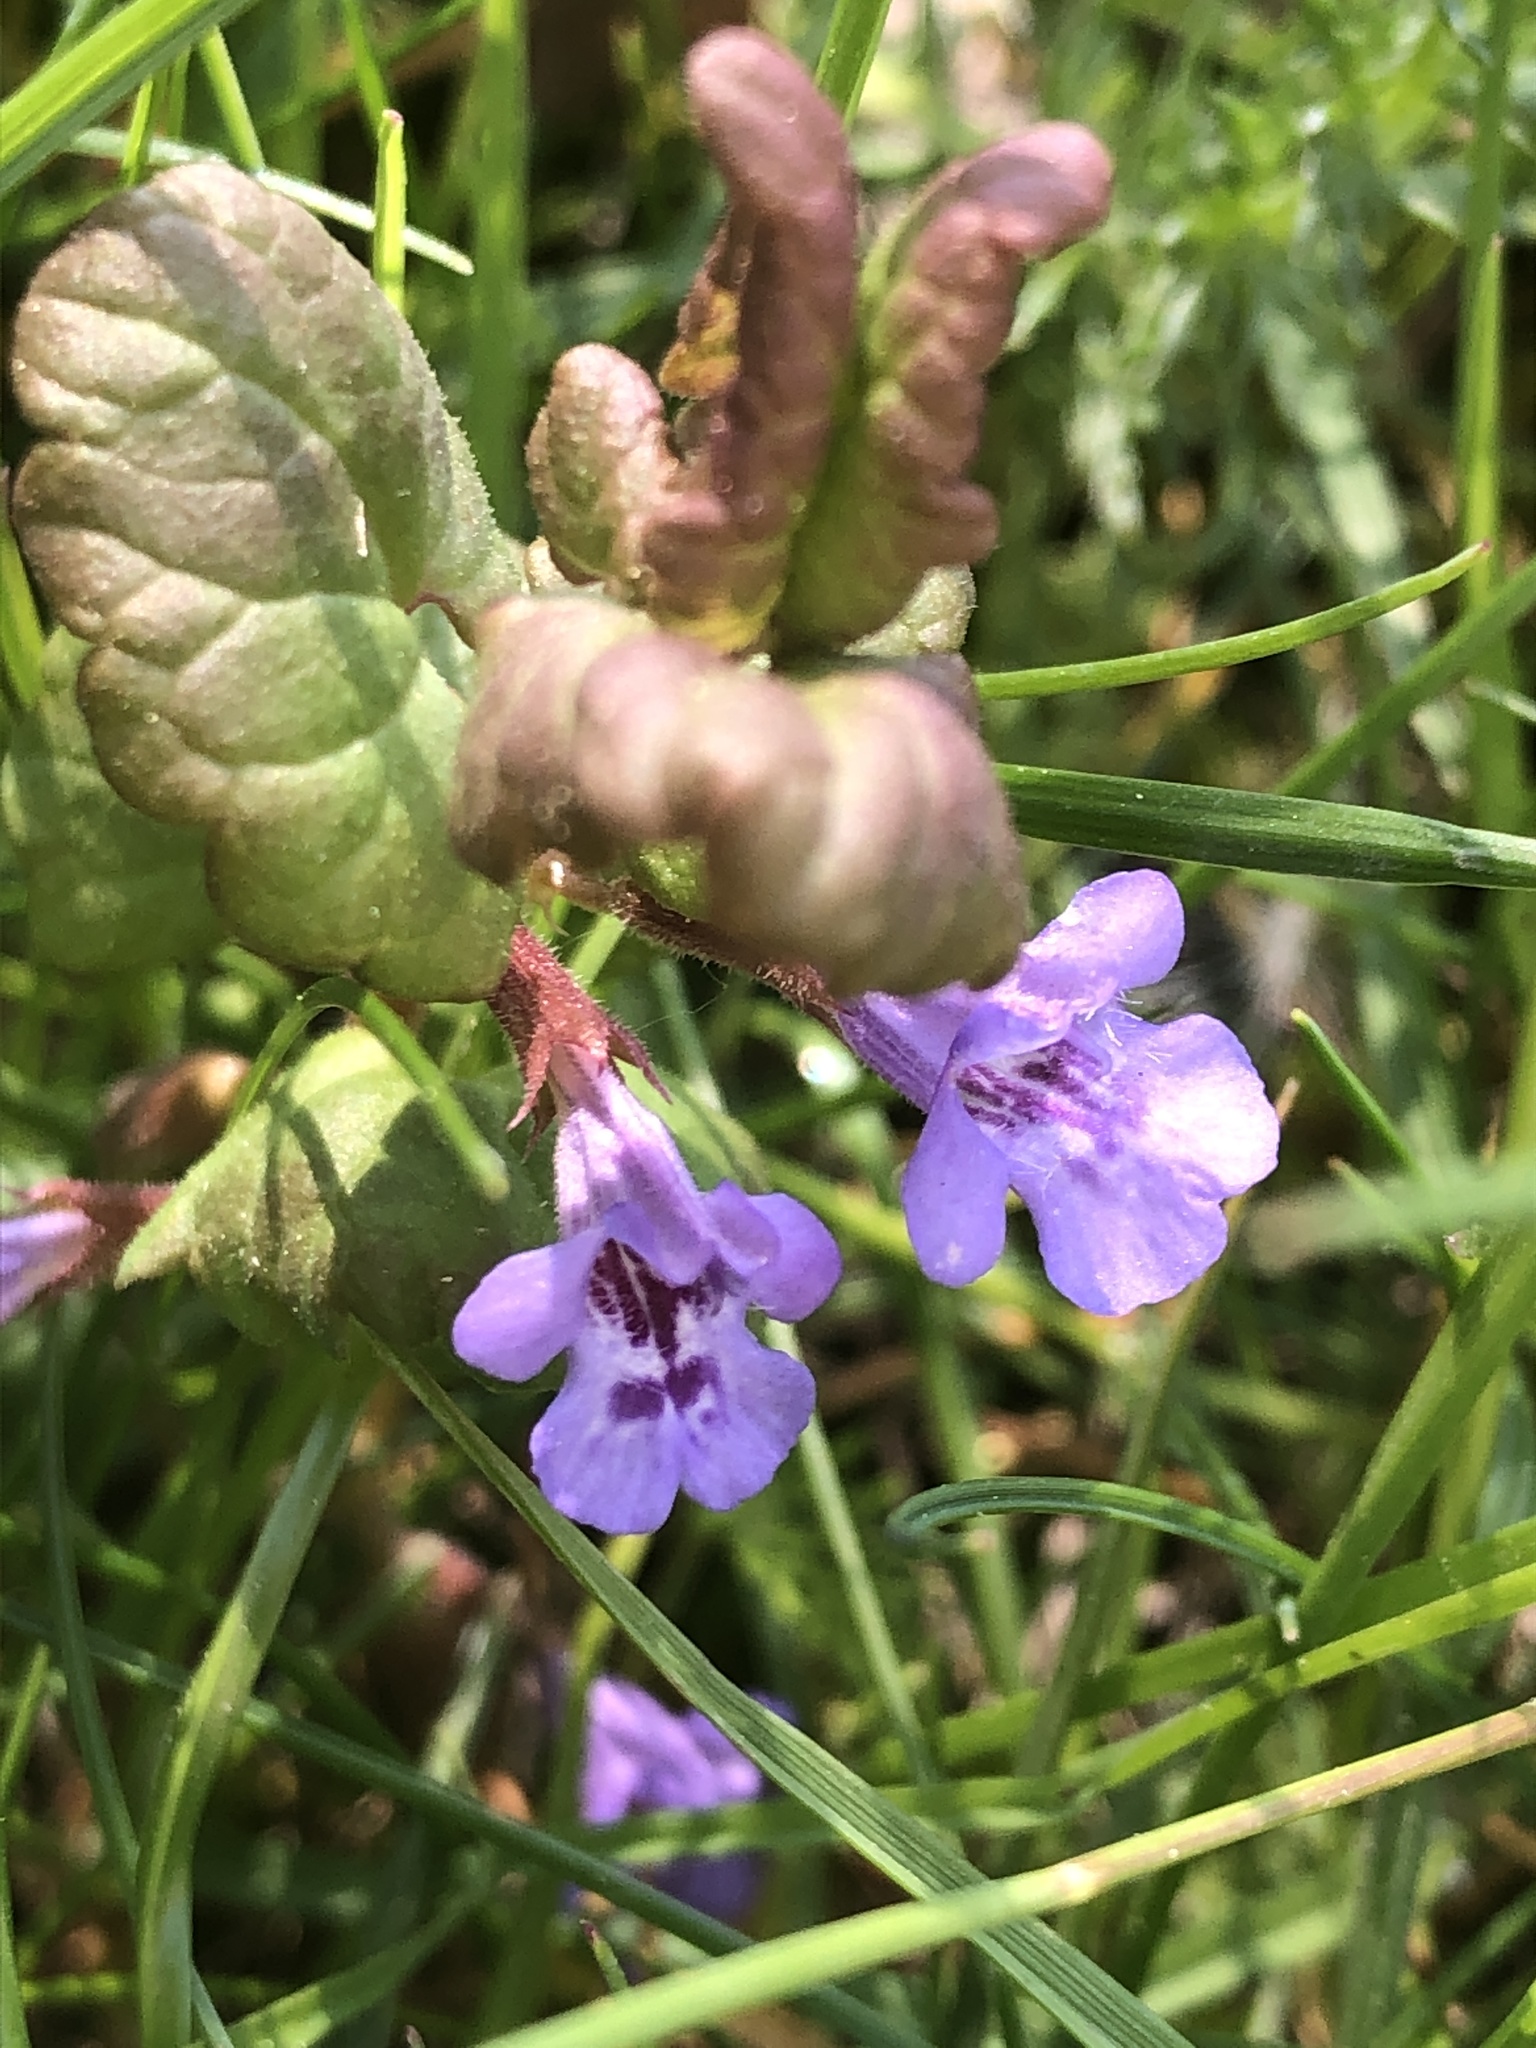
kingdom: Plantae
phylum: Tracheophyta
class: Magnoliopsida
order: Lamiales
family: Lamiaceae
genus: Glechoma
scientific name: Glechoma hederacea
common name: Ground ivy
